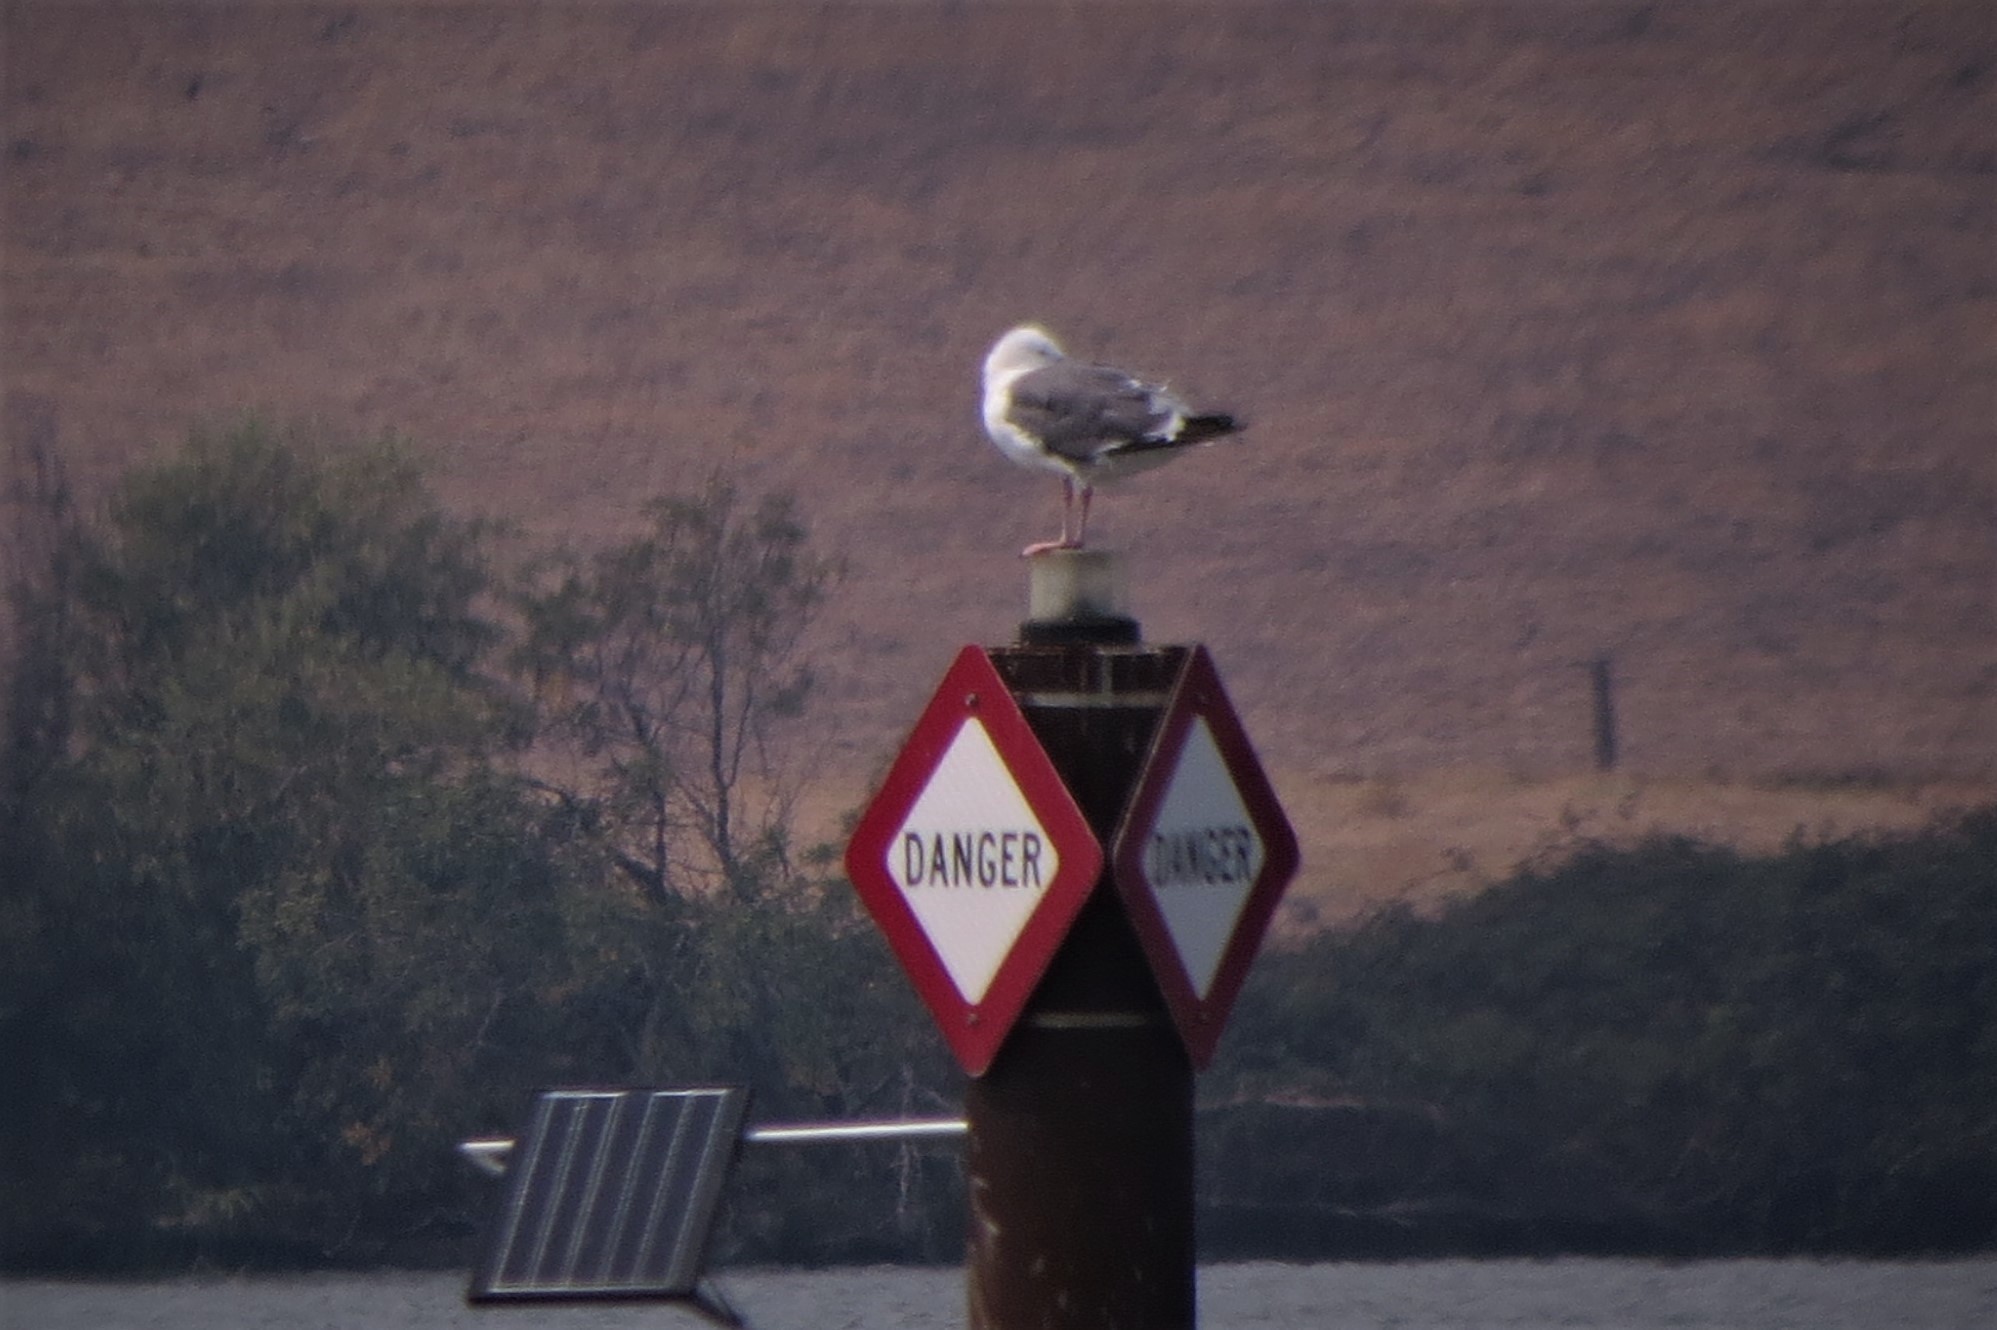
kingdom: Animalia
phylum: Chordata
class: Aves
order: Charadriiformes
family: Laridae
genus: Larus
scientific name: Larus occidentalis
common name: Western gull
